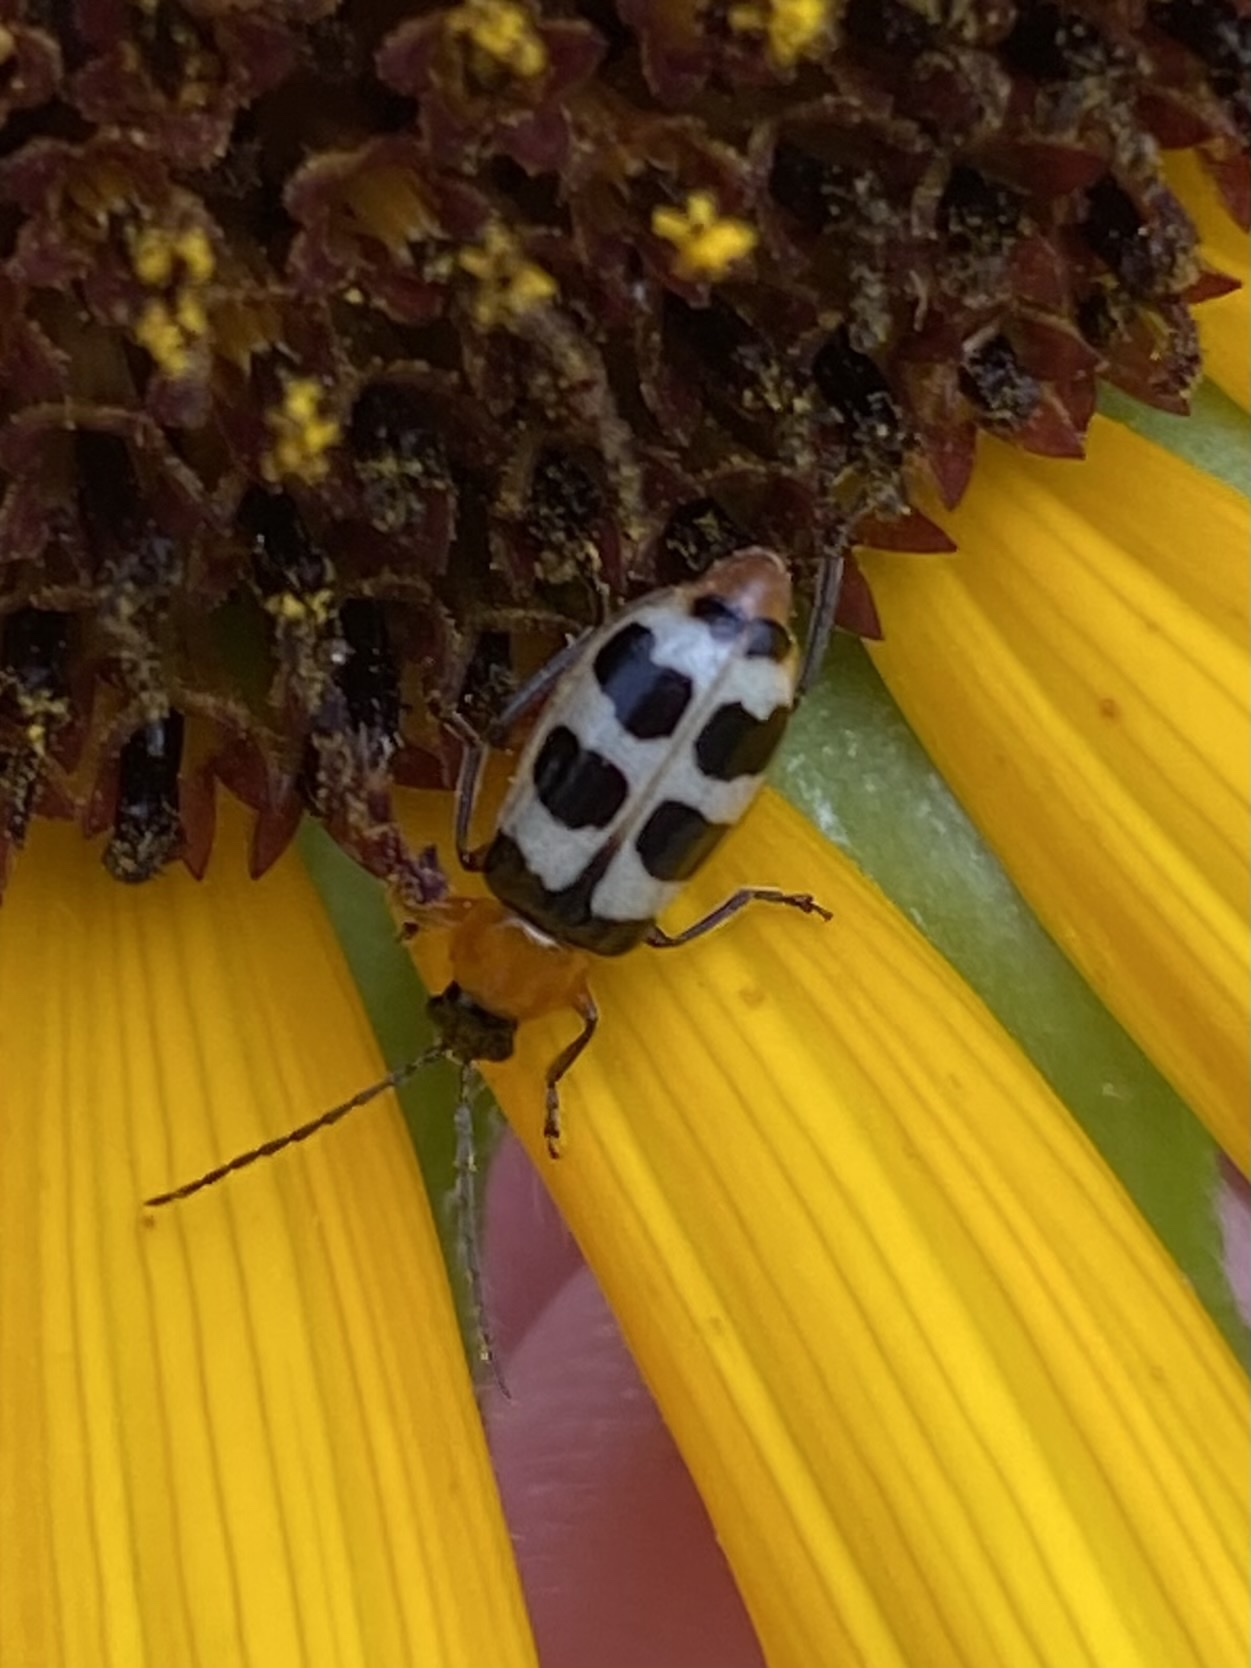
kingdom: Animalia
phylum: Arthropoda
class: Insecta
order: Coleoptera
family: Chrysomelidae
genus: Paranapiacaba
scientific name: Paranapiacaba tricincta
